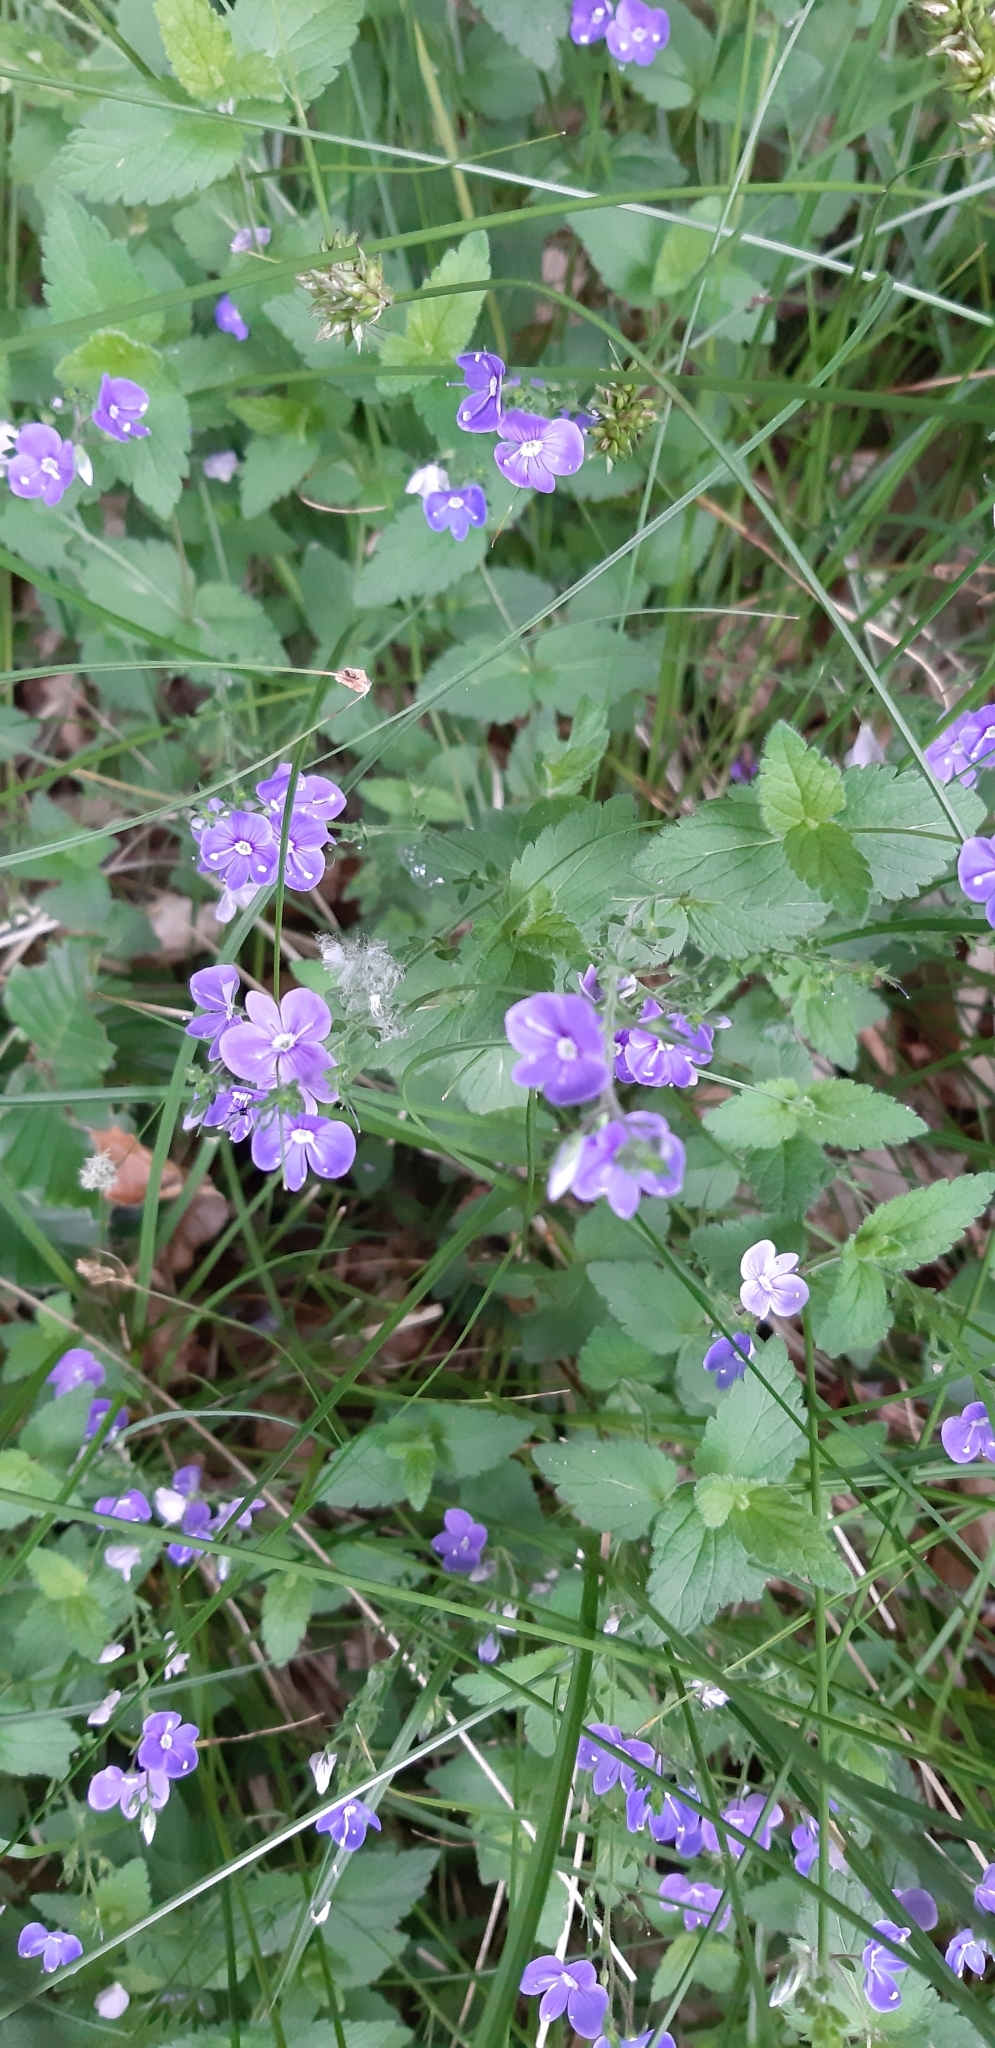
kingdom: Plantae
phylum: Tracheophyta
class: Magnoliopsida
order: Lamiales
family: Plantaginaceae
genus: Veronica
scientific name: Veronica chamaedrys
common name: Germander speedwell
